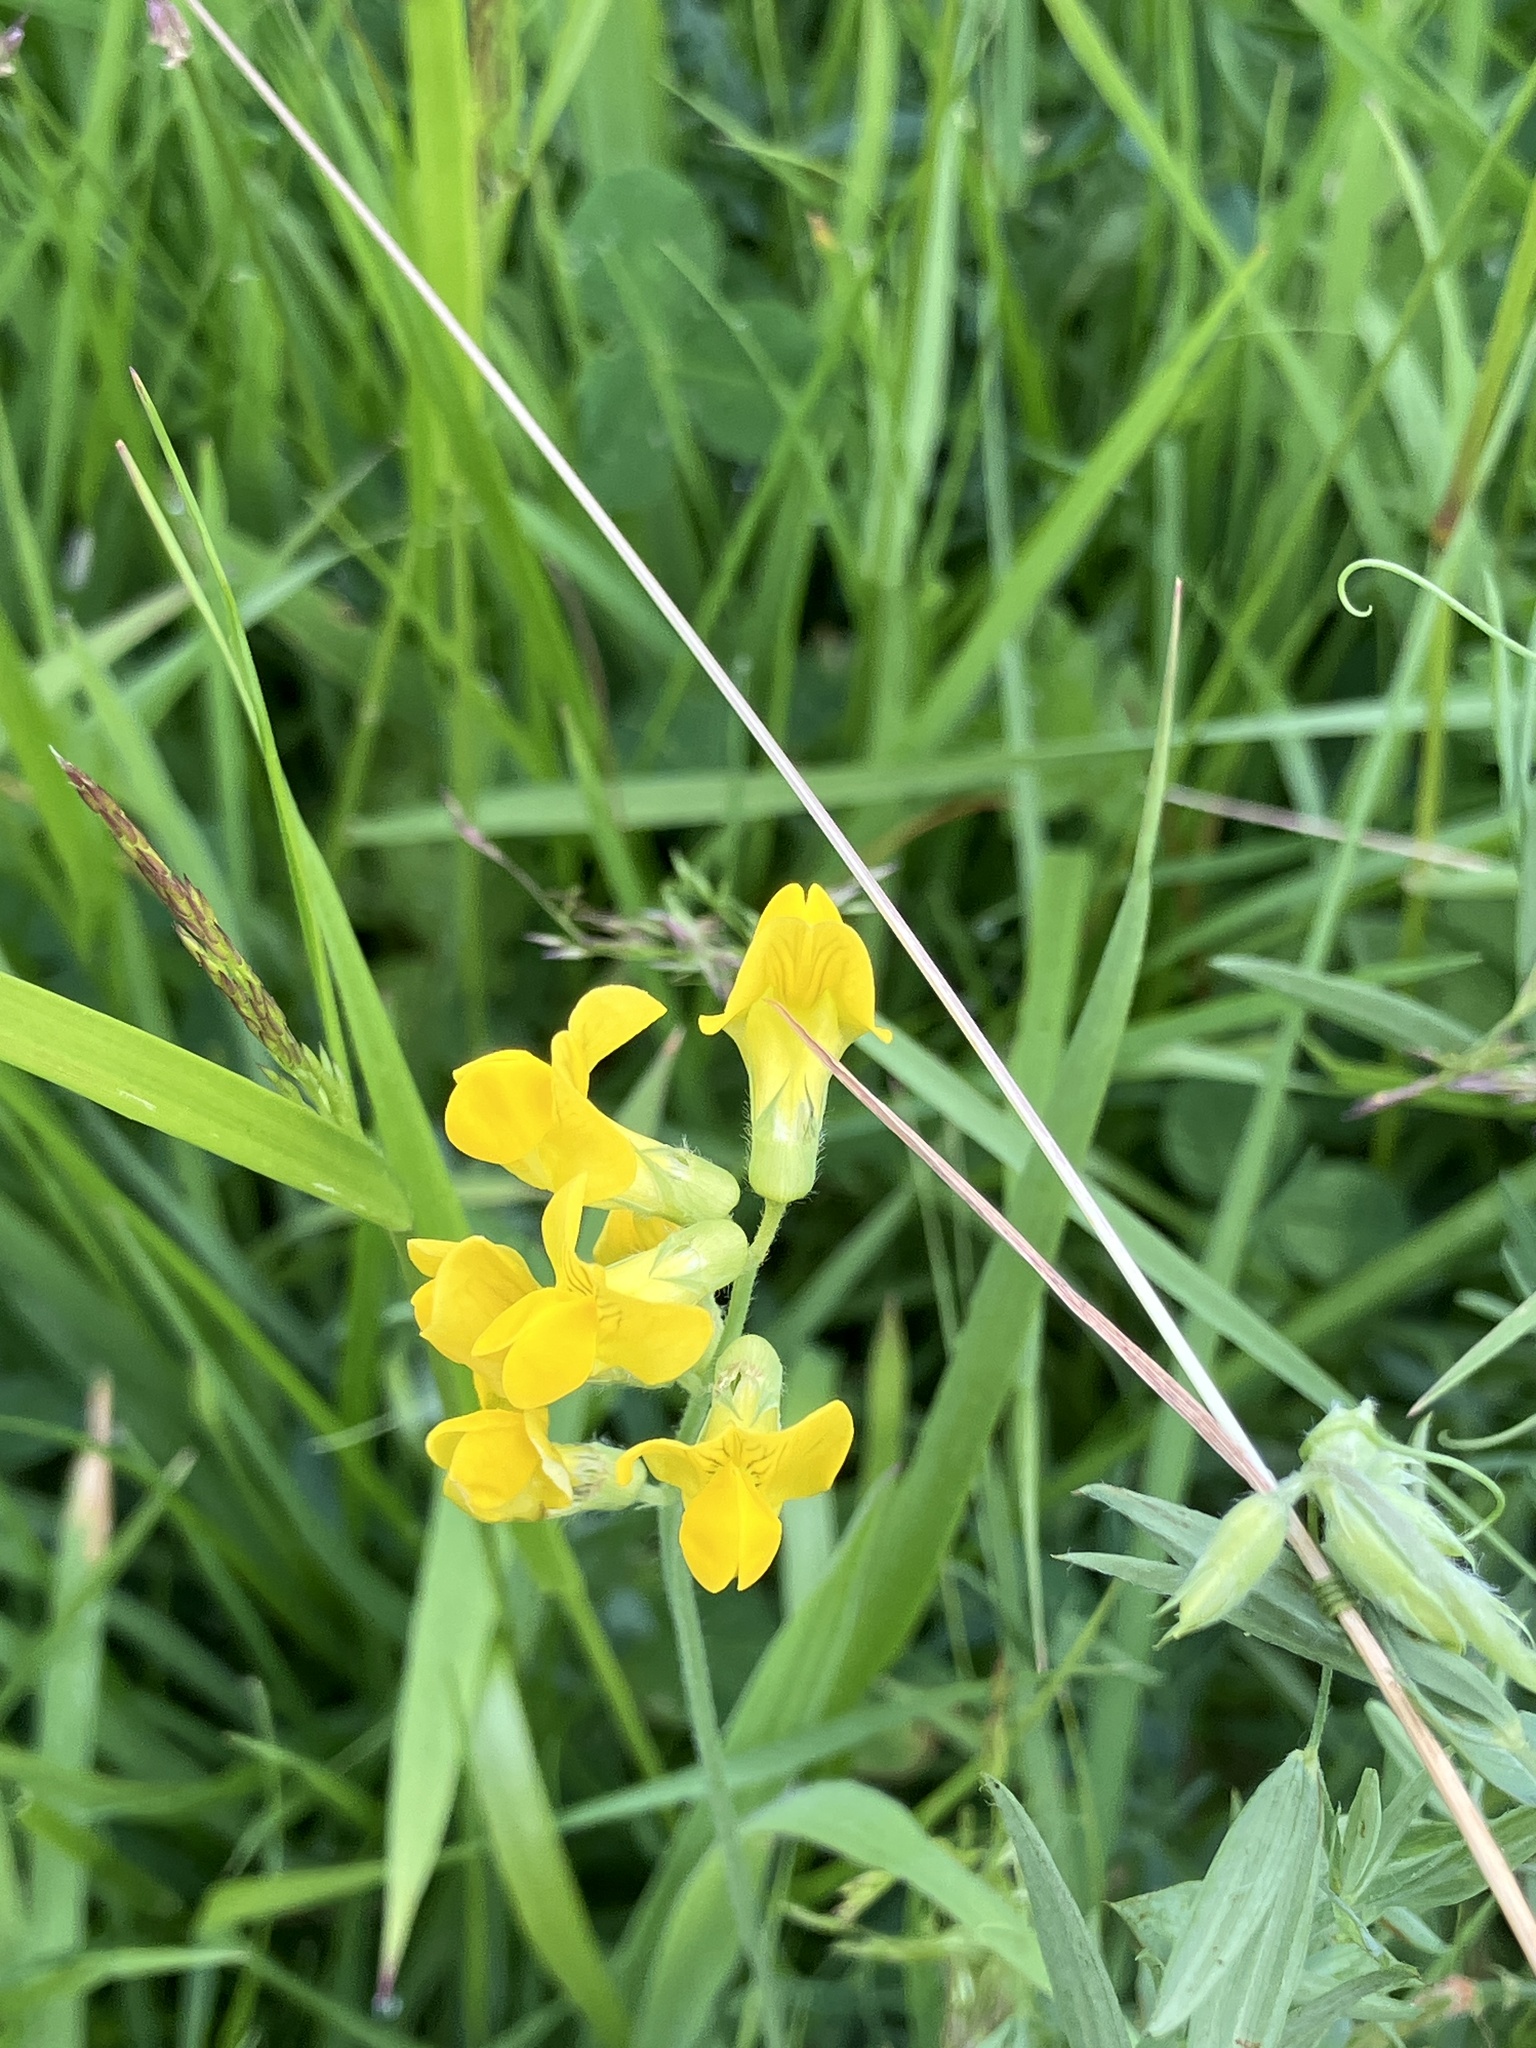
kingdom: Plantae
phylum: Tracheophyta
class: Magnoliopsida
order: Fabales
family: Fabaceae
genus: Lathyrus
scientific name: Lathyrus pratensis
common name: Meadow vetchling
